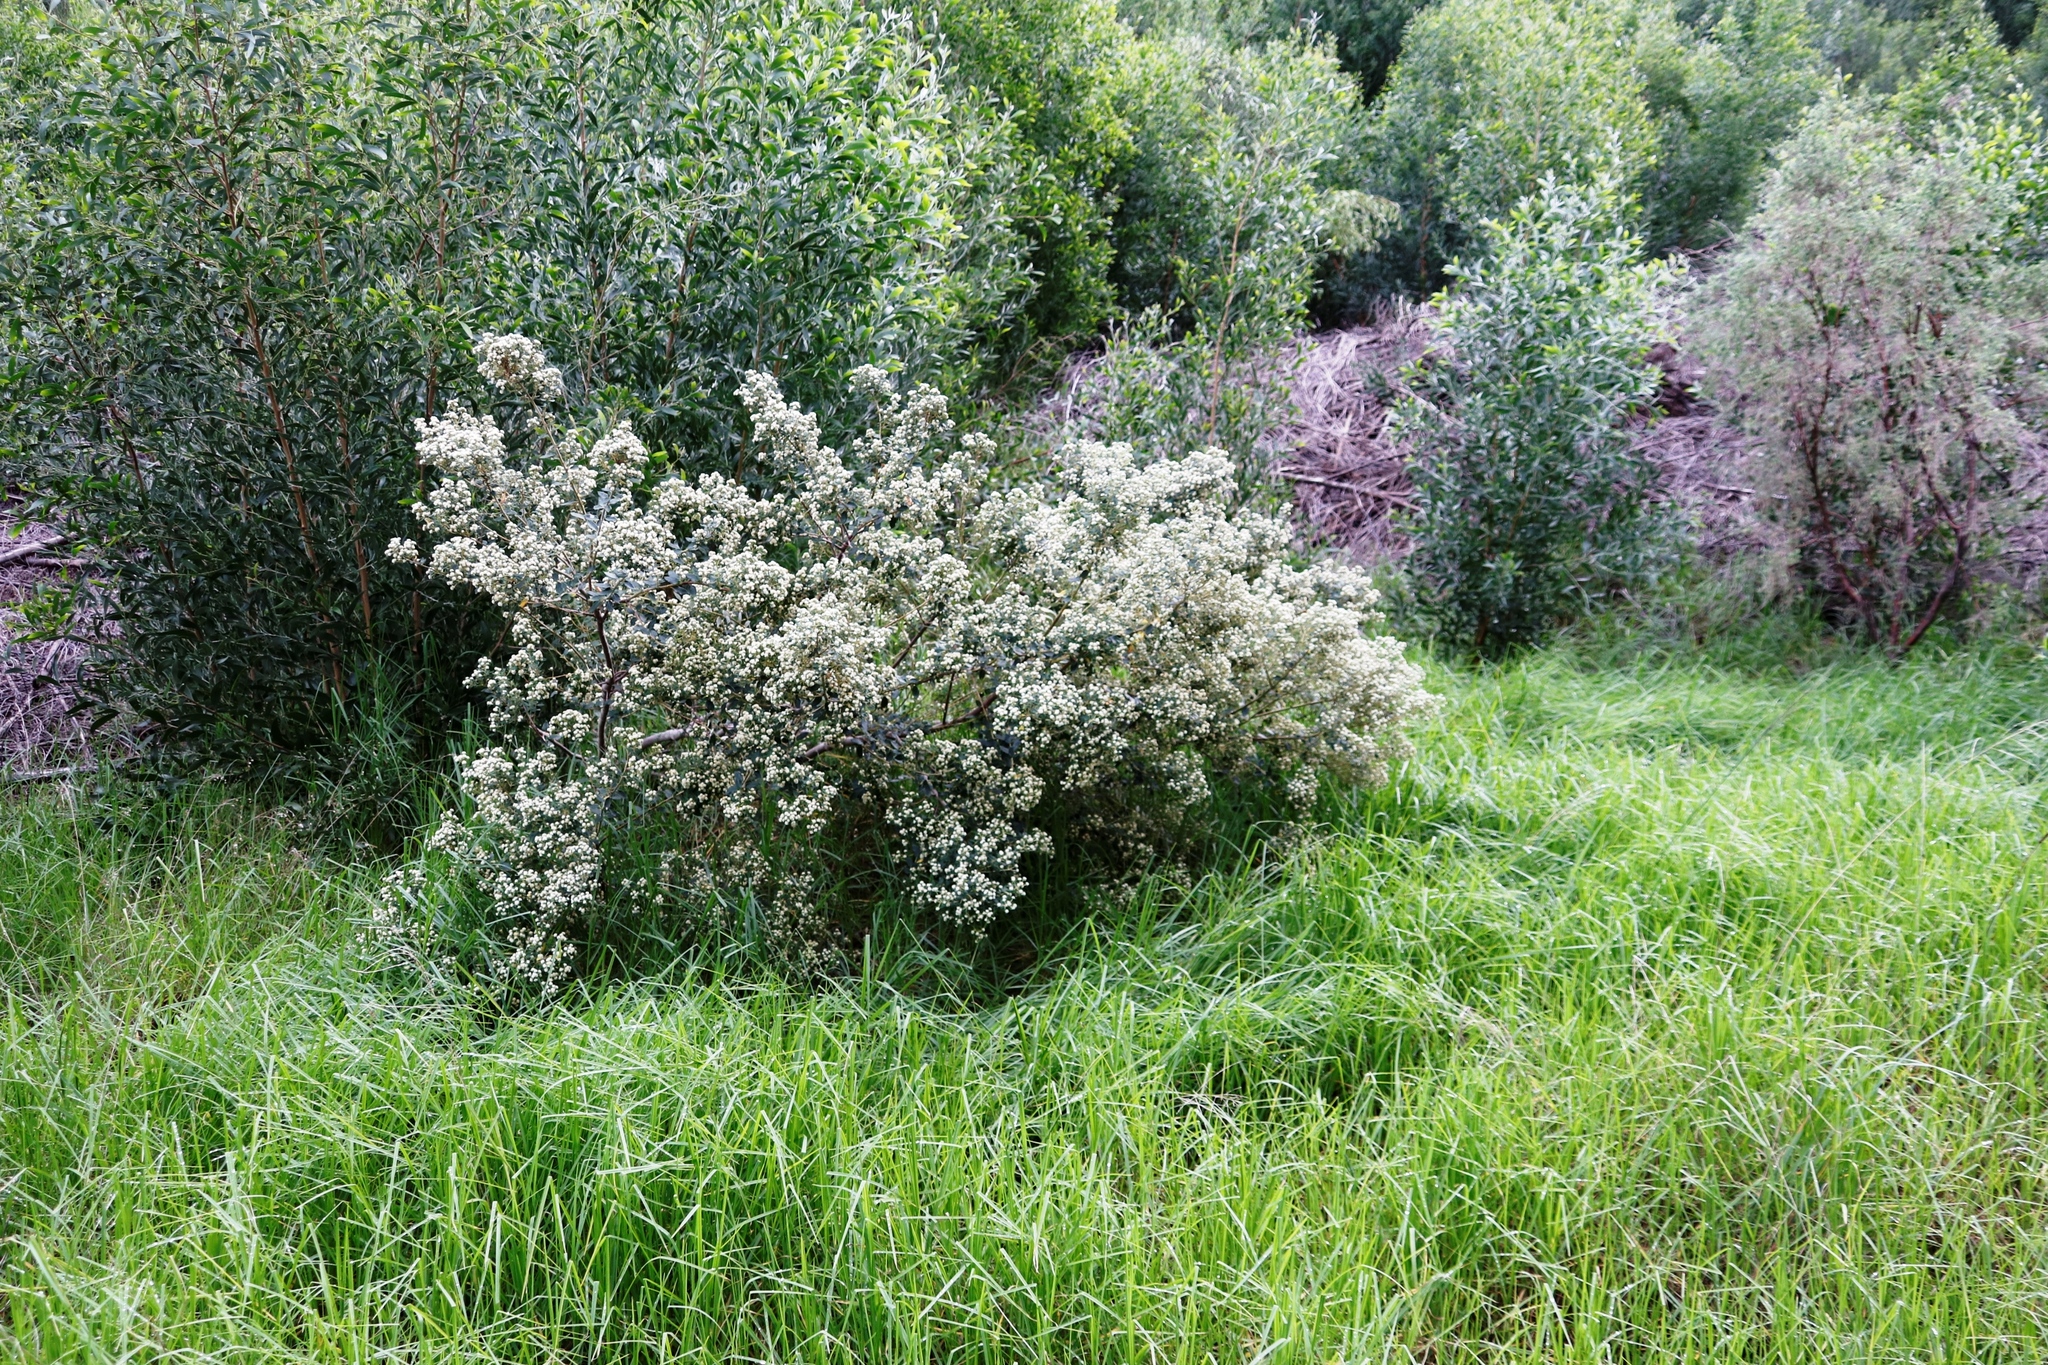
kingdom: Plantae
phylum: Tracheophyta
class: Magnoliopsida
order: Rosales
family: Rhamnaceae
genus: Phylica
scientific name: Phylica buxifolia
